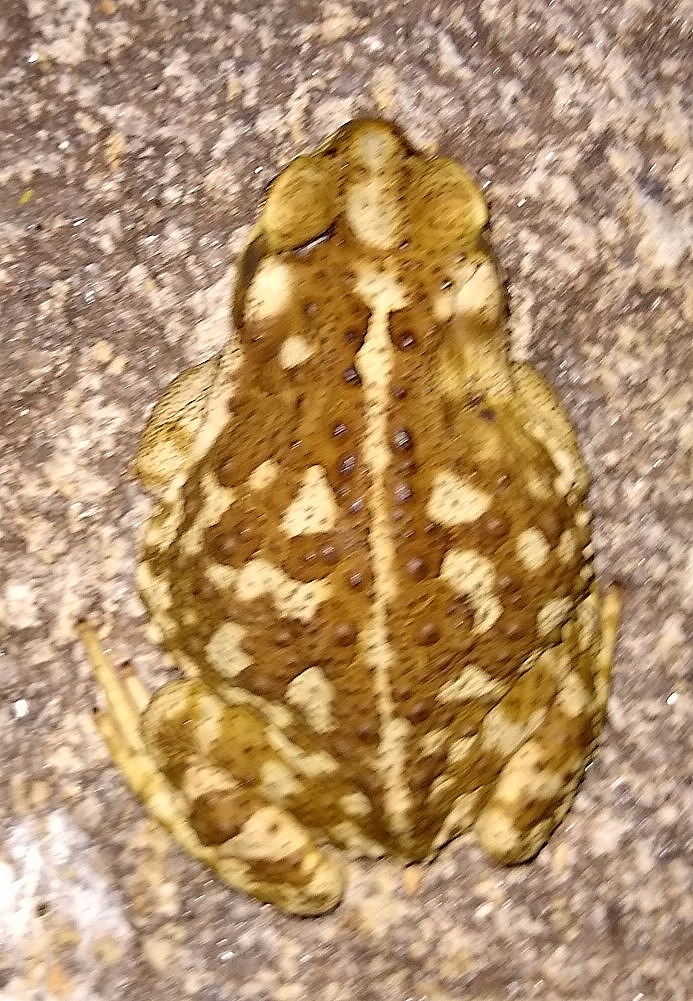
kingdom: Animalia
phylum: Chordata
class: Amphibia
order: Anura
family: Bufonidae
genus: Rhinella
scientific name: Rhinella arenarum
